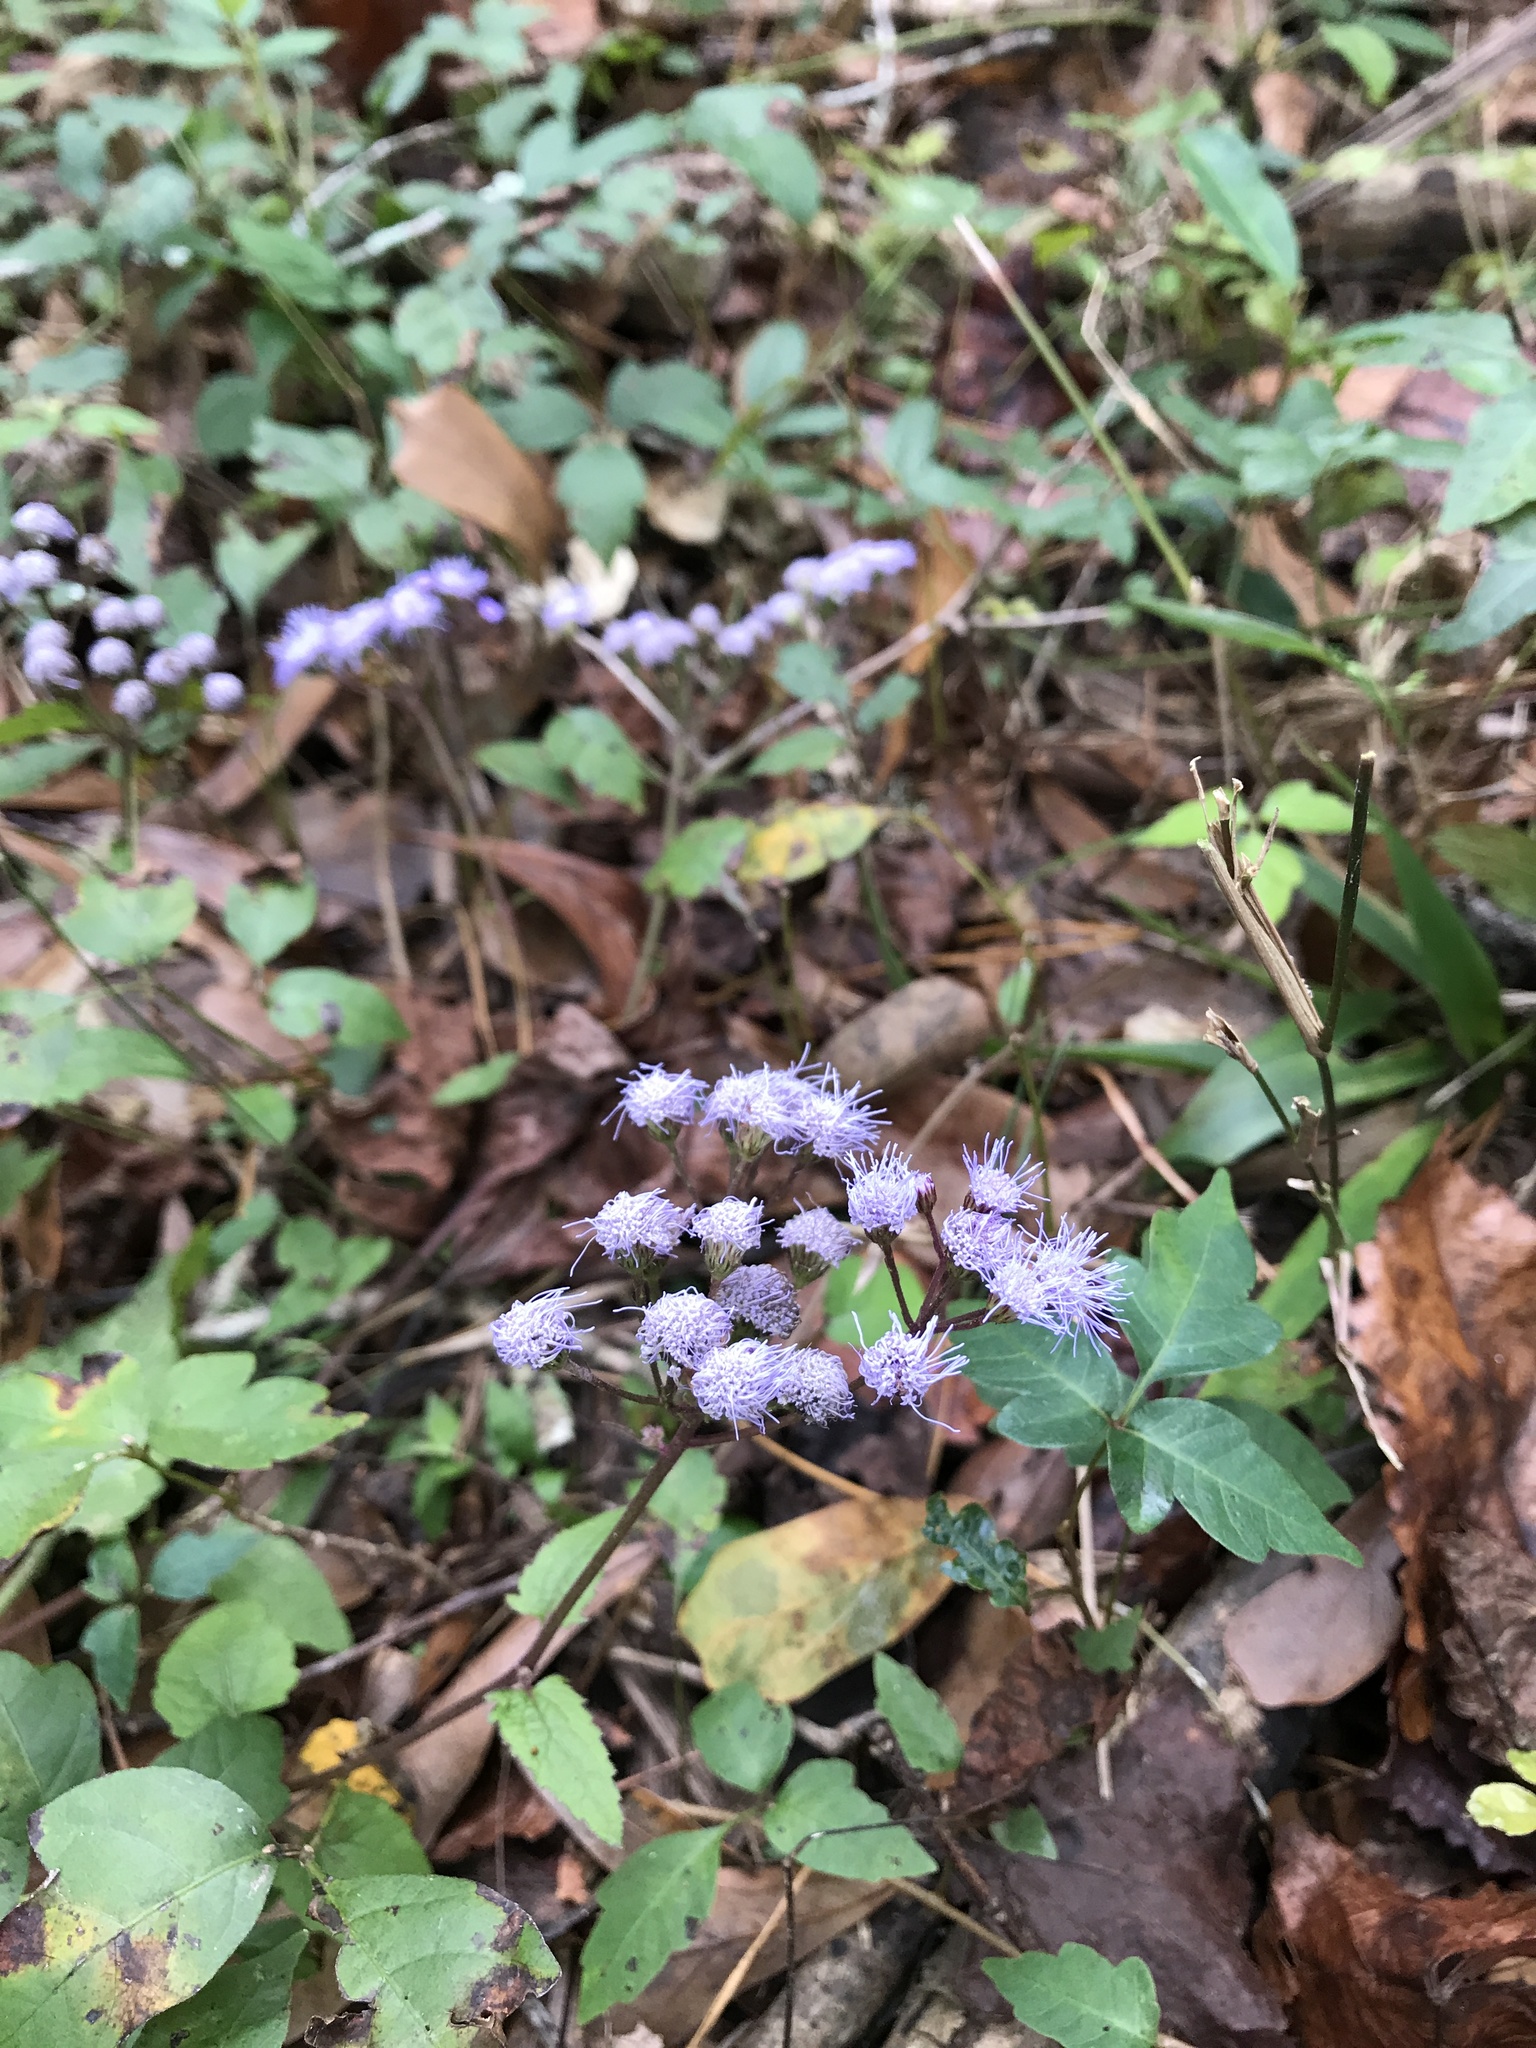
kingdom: Plantae
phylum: Tracheophyta
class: Magnoliopsida
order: Asterales
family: Asteraceae
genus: Conoclinium
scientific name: Conoclinium coelestinum
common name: Blue mistflower
